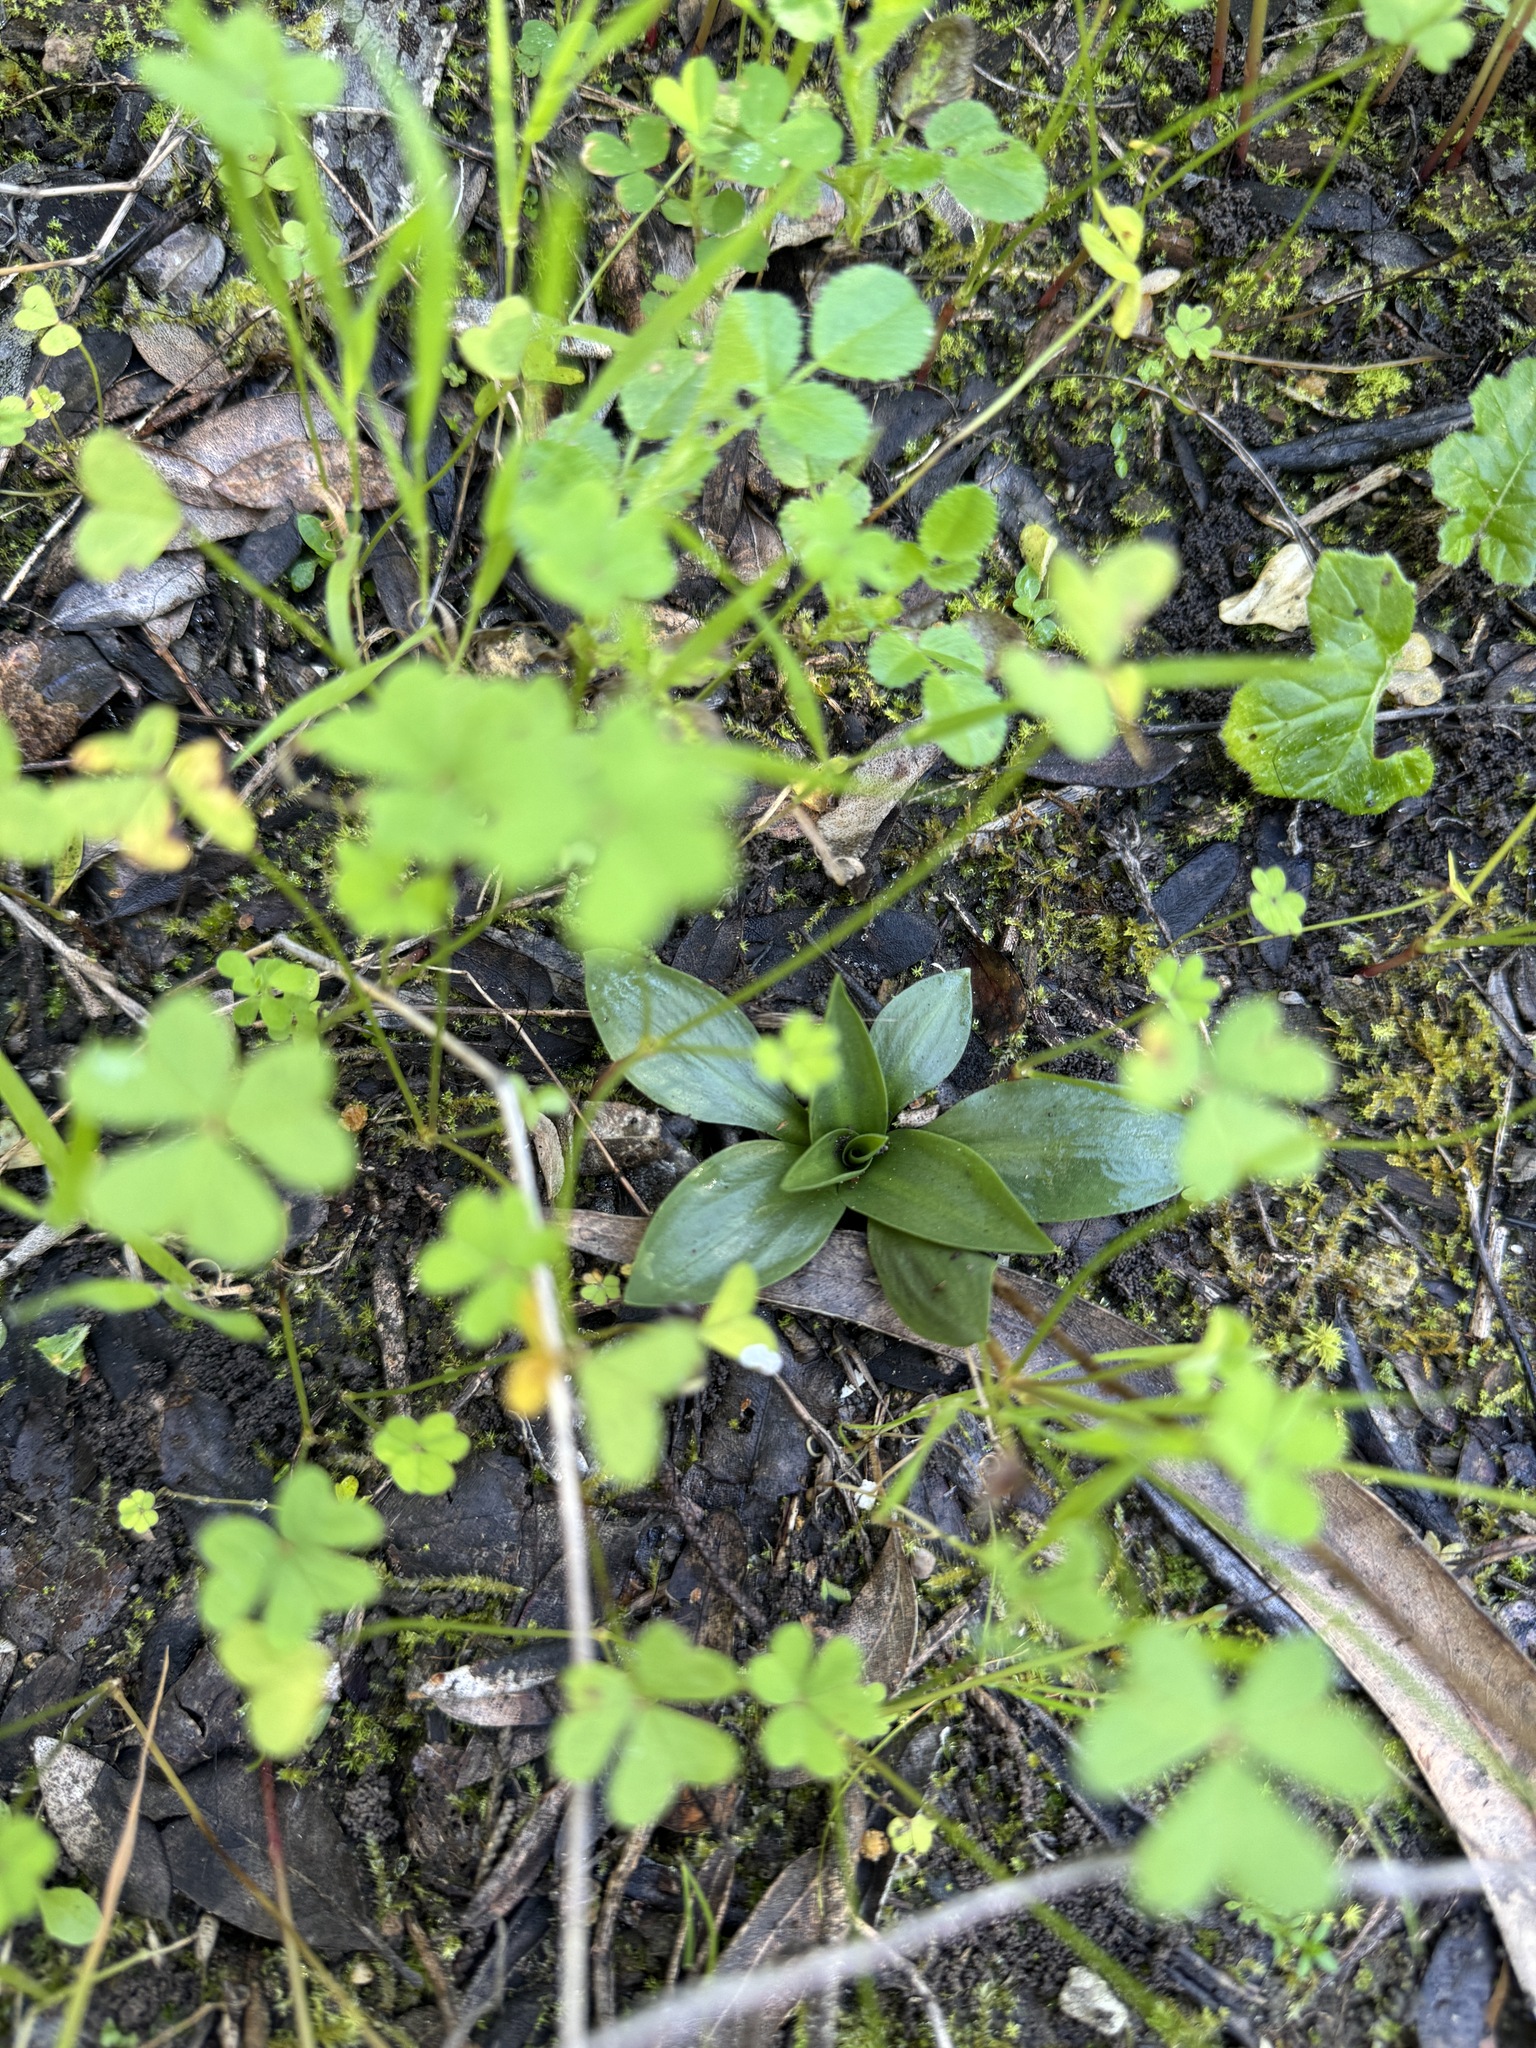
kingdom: Plantae
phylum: Tracheophyta
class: Liliopsida
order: Asparagales
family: Orchidaceae
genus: Spiranthes
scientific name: Spiranthes spiralis
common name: Autumn lady's-tresses
